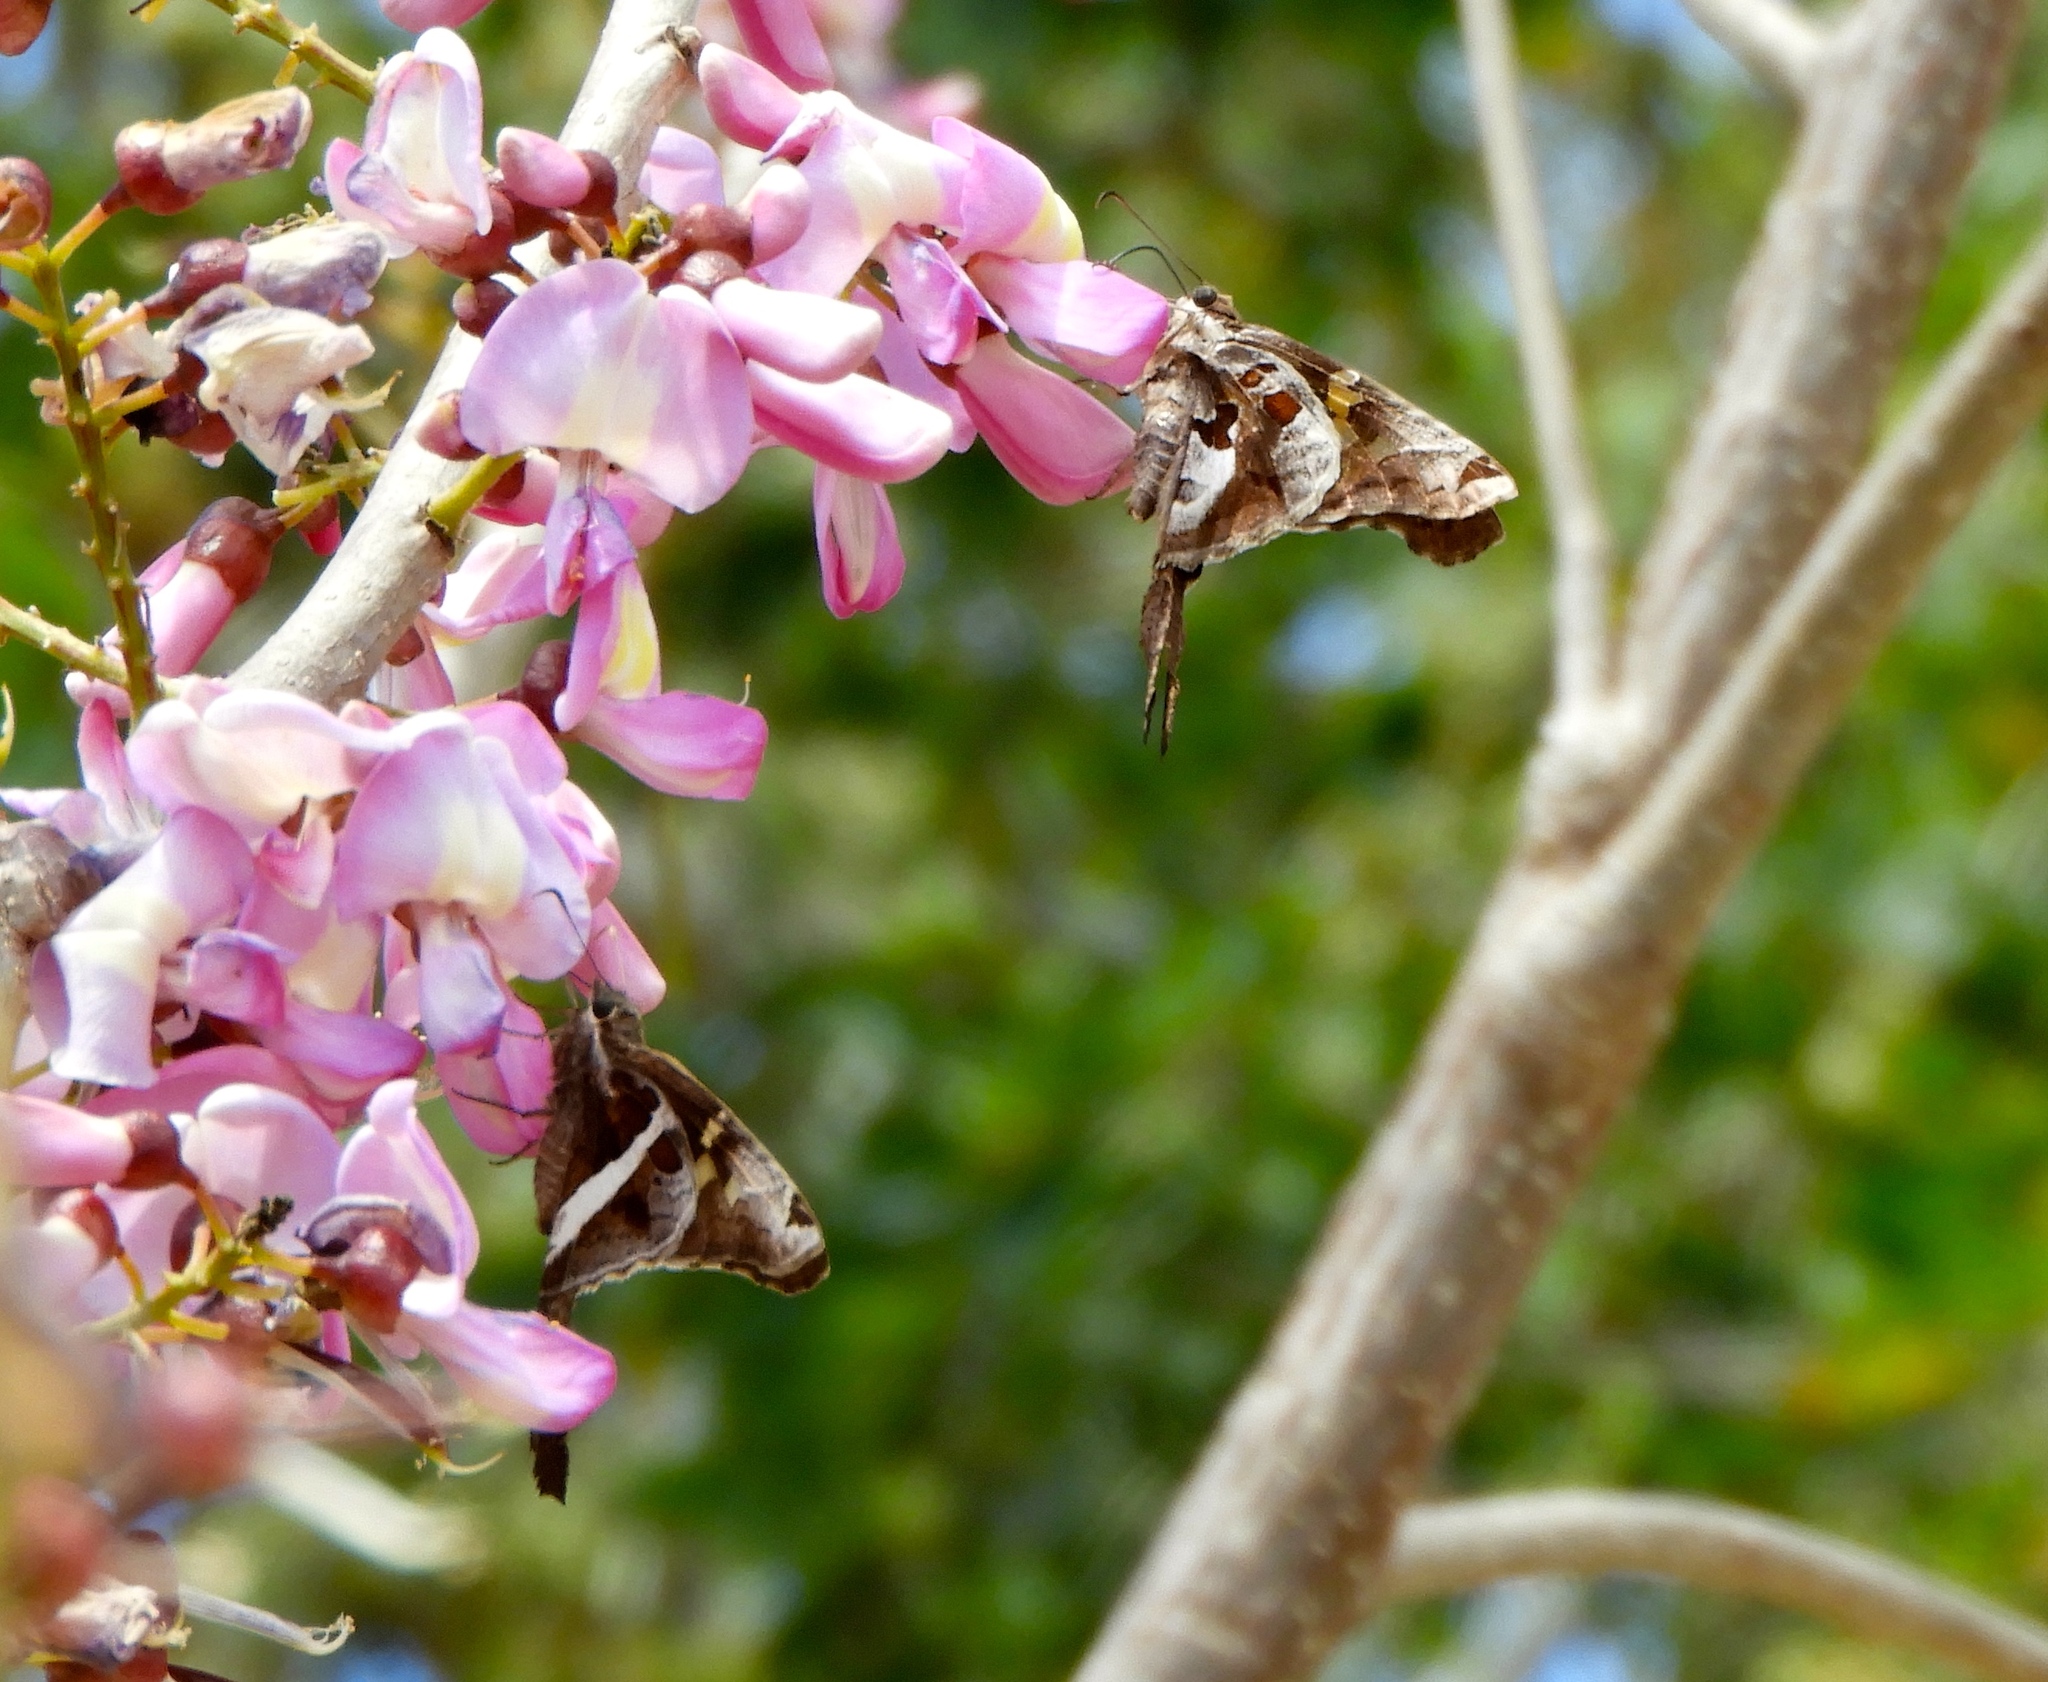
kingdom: Animalia
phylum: Arthropoda
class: Insecta
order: Lepidoptera
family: Hesperiidae
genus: Chioides
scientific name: Chioides zilpa
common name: Zilpa longtail
